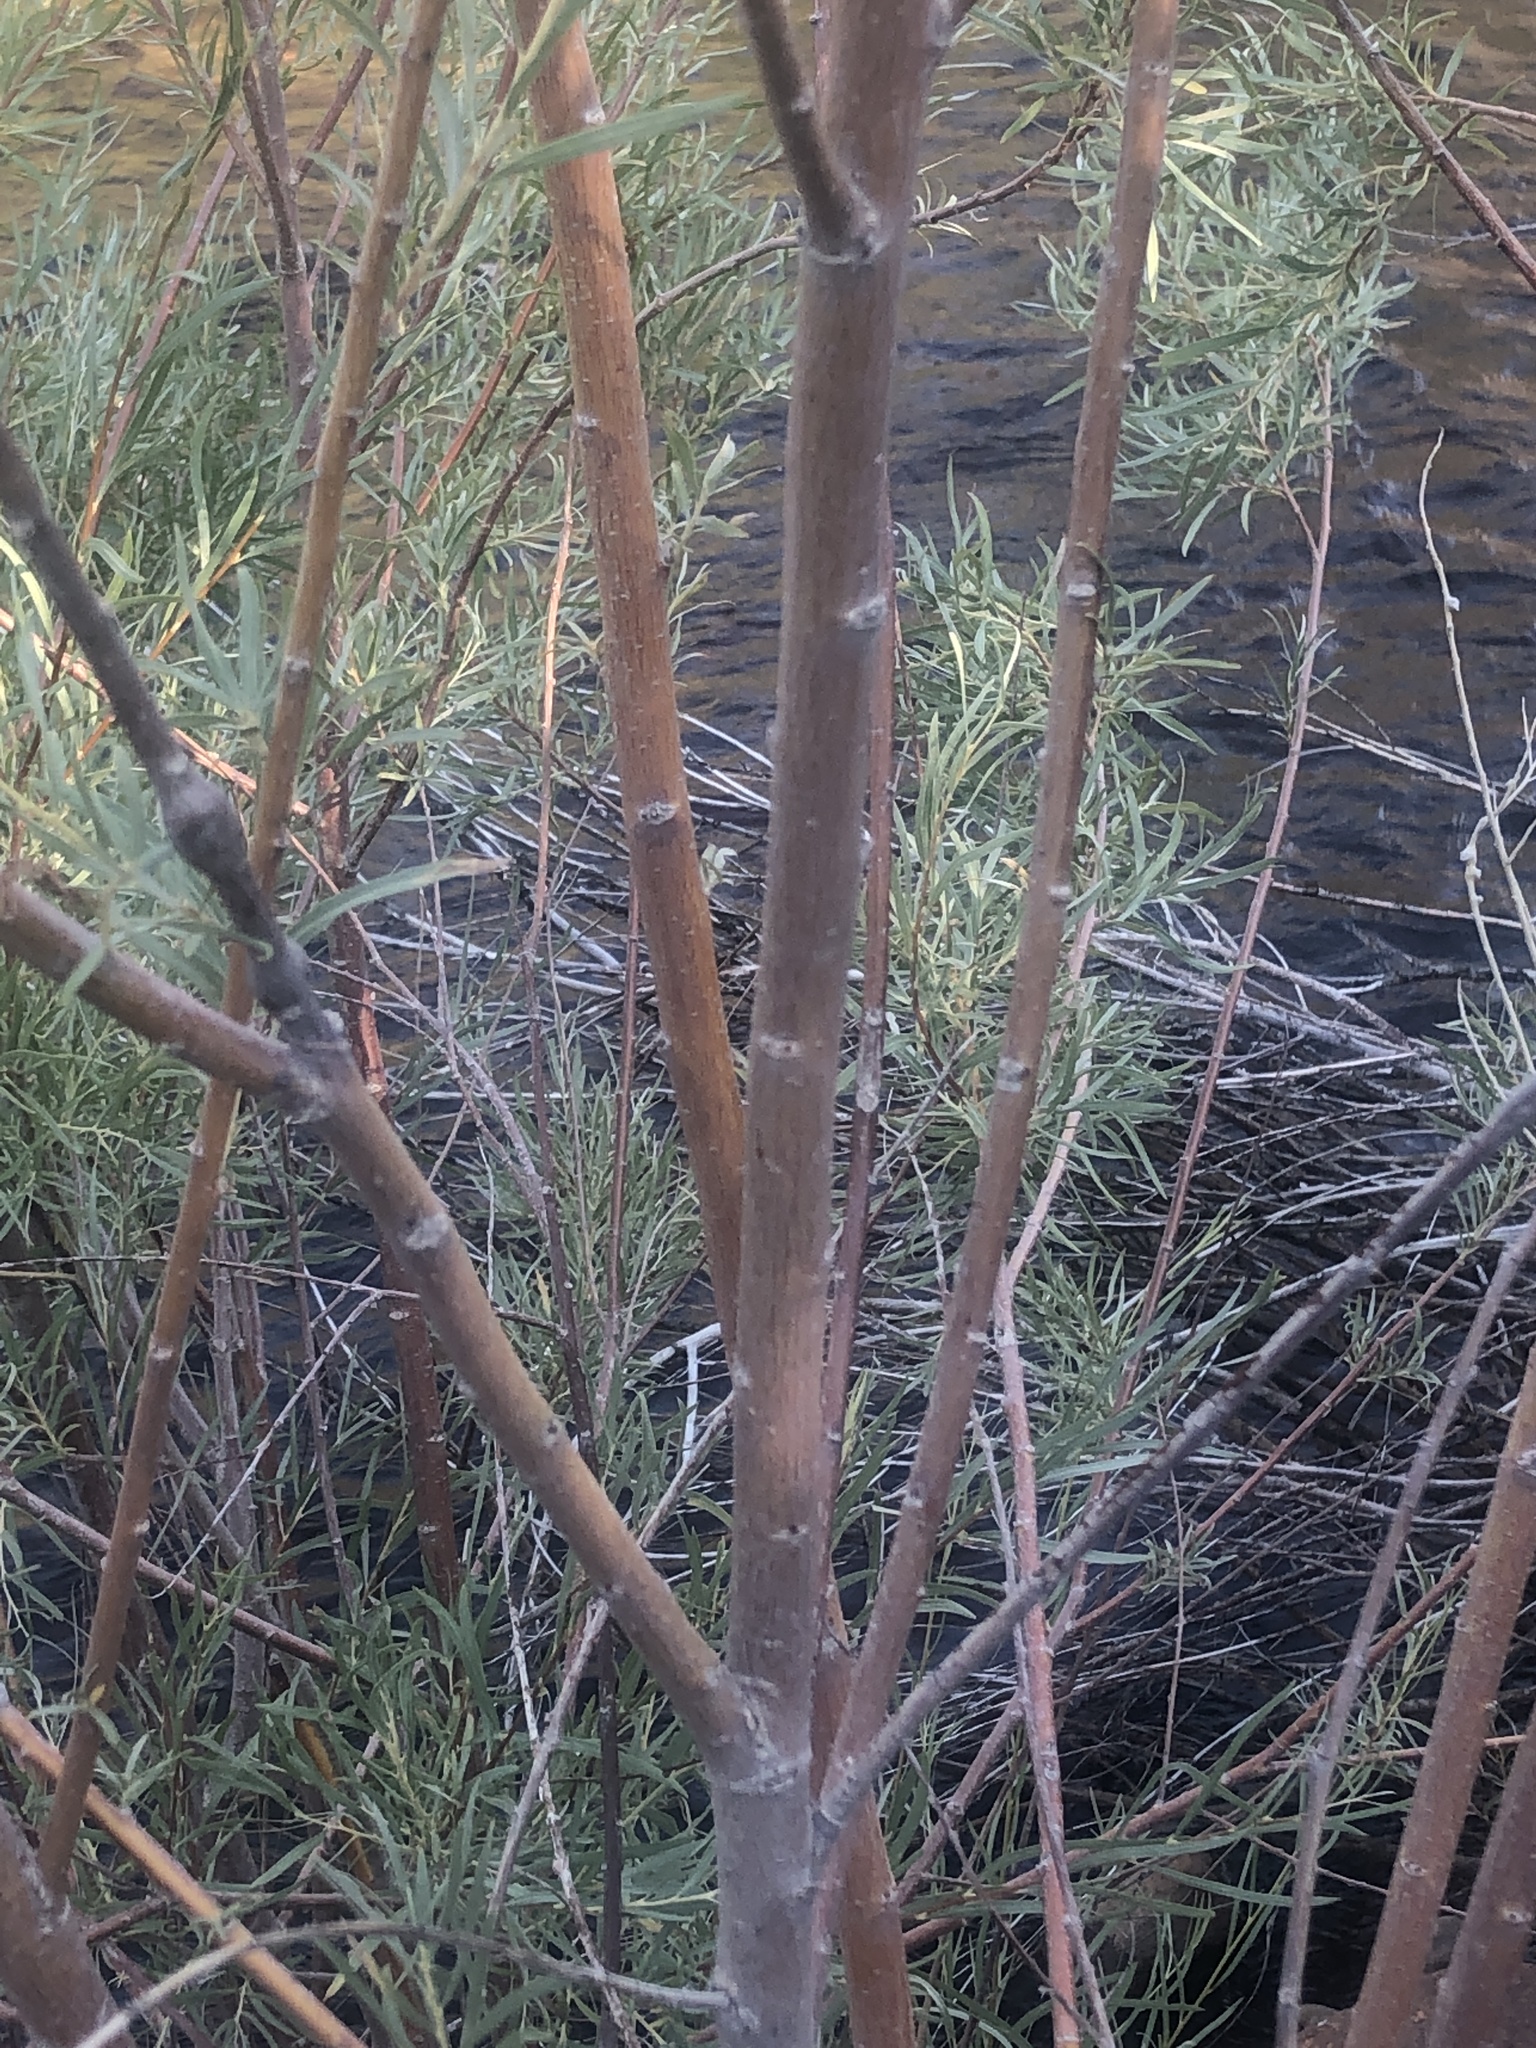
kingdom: Plantae
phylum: Tracheophyta
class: Magnoliopsida
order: Malpighiales
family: Salicaceae
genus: Salix
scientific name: Salix exigua
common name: Coyote willow
